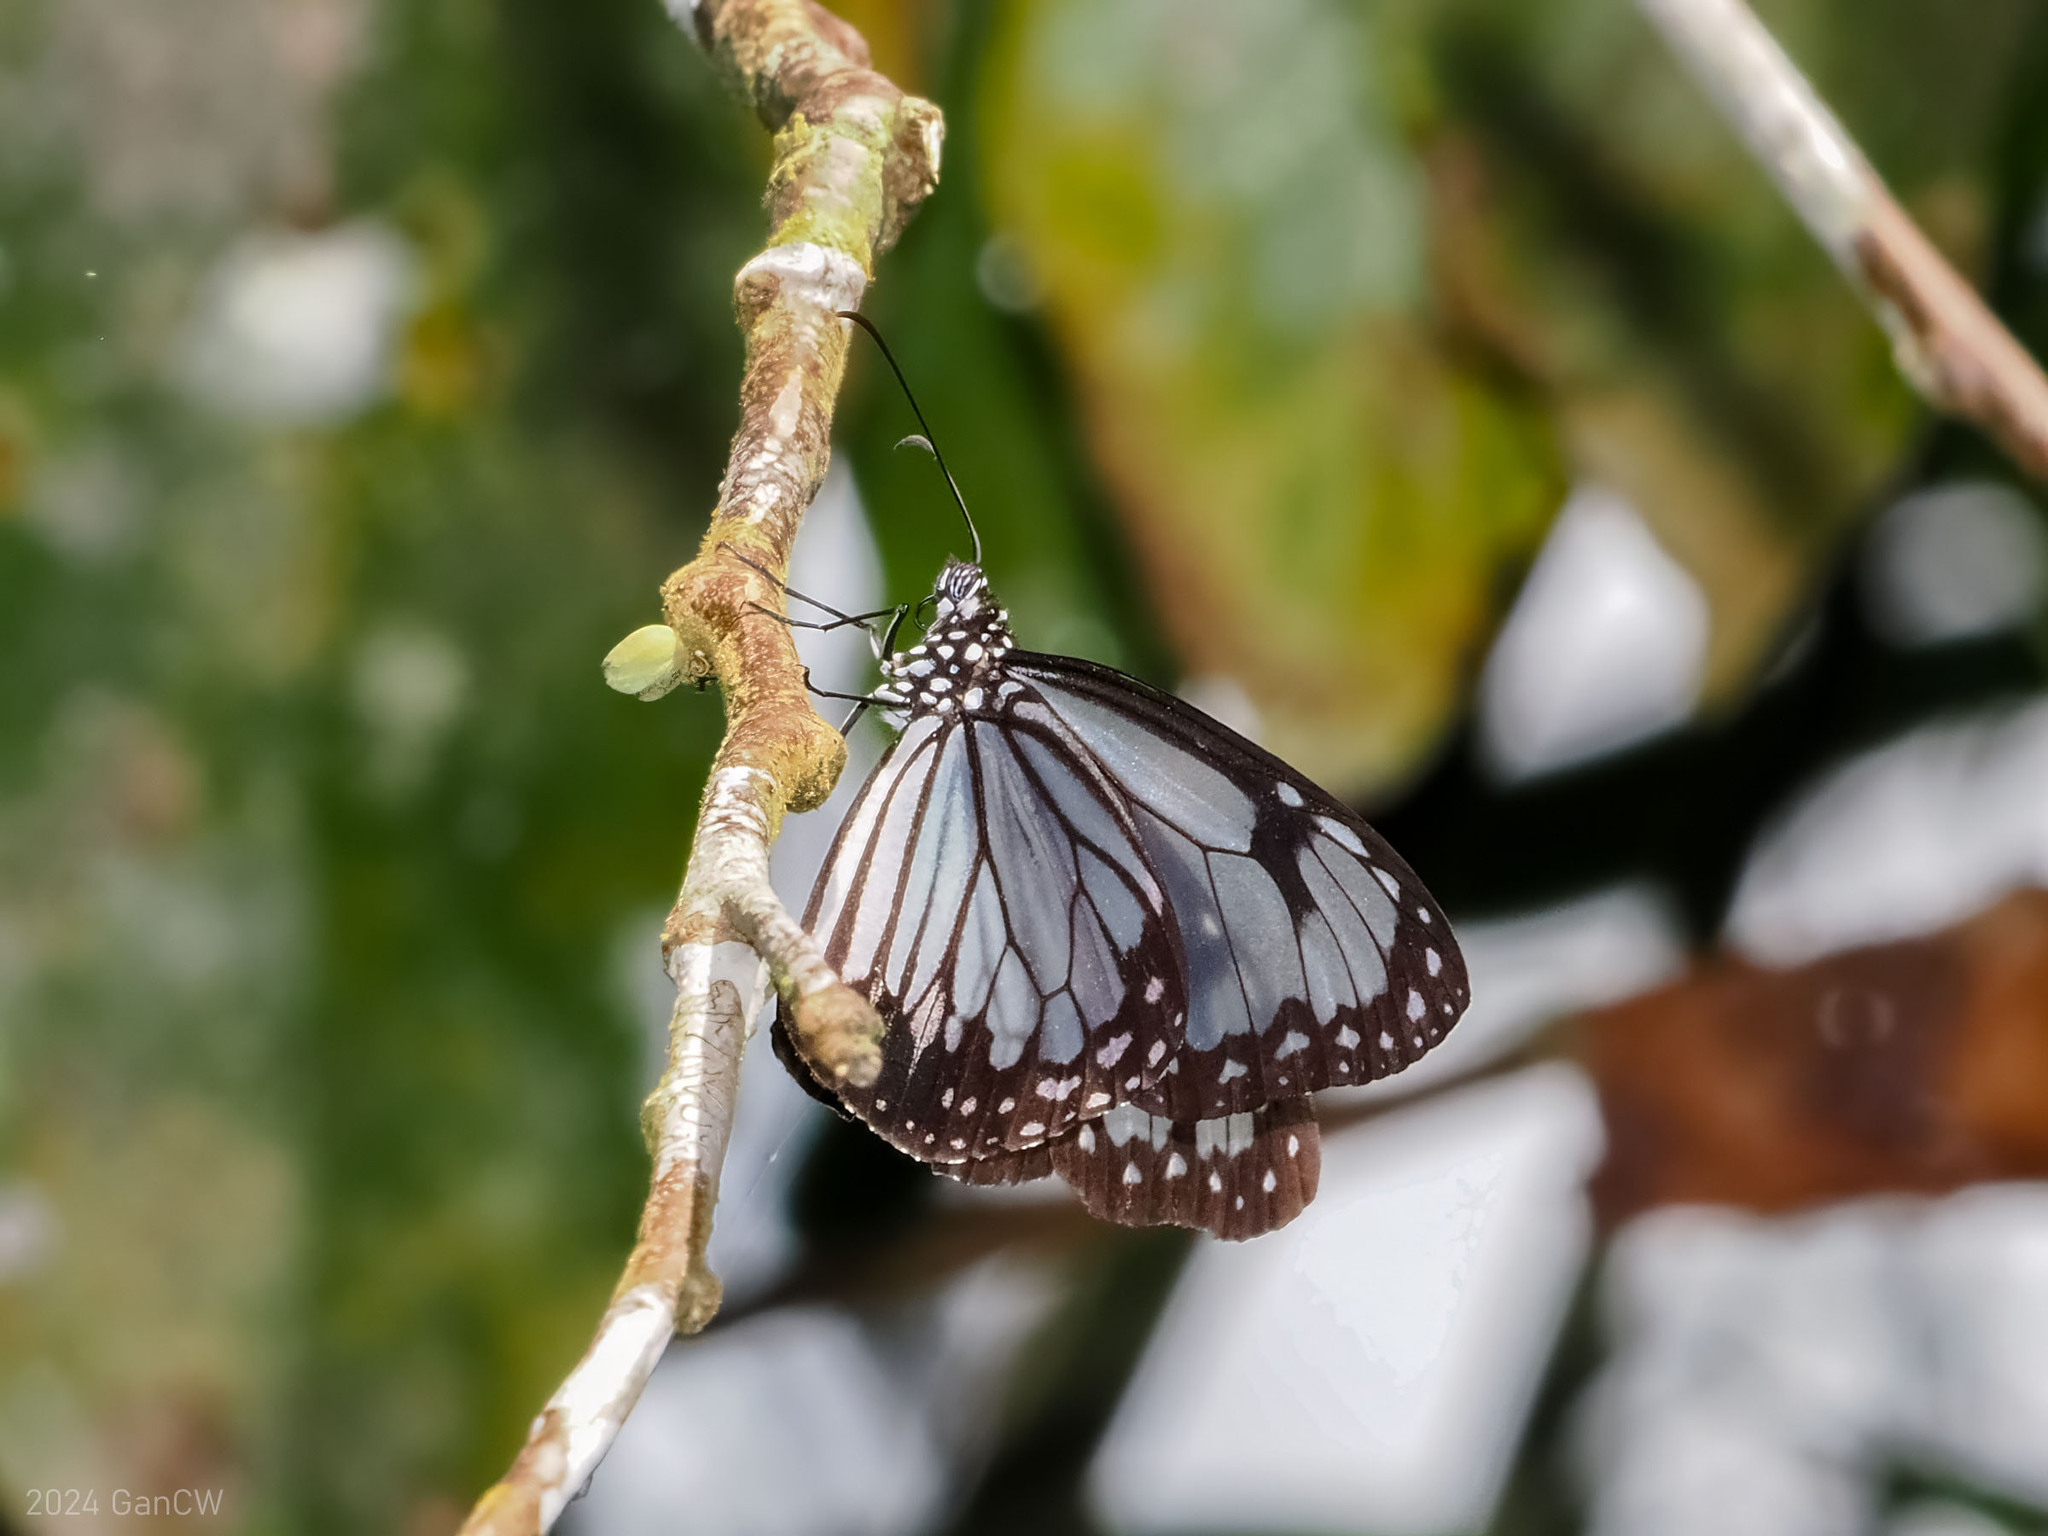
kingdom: Animalia
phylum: Arthropoda
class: Insecta
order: Lepidoptera
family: Nymphalidae
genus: Parantica
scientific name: Parantica vitrina
